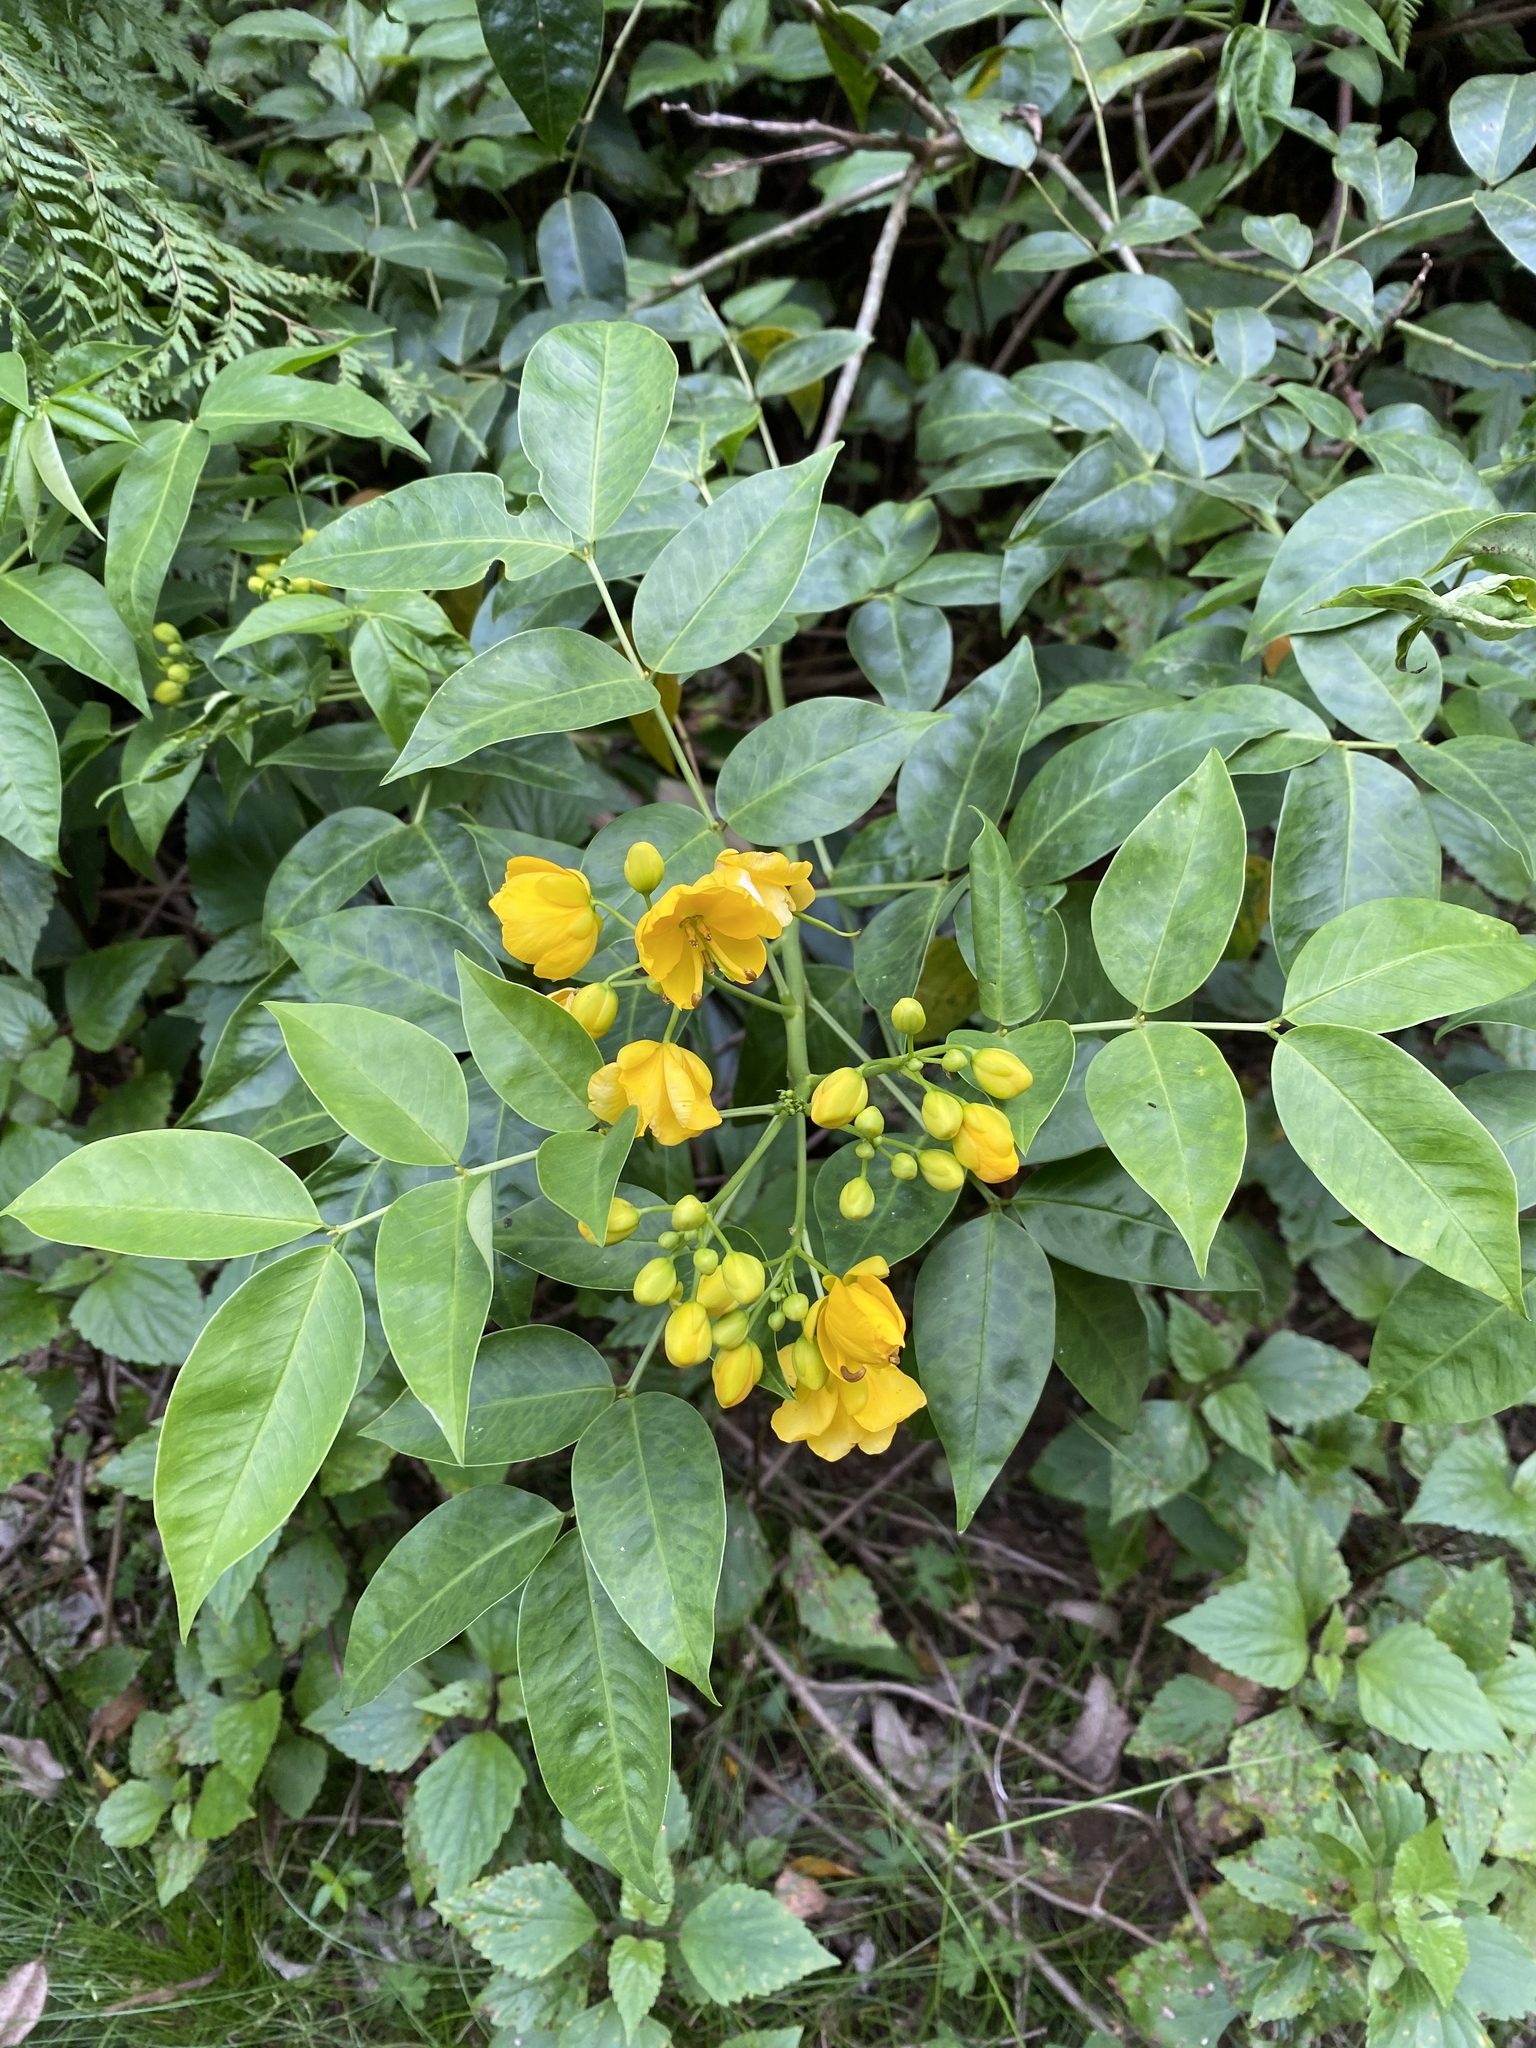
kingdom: Plantae
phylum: Tracheophyta
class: Magnoliopsida
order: Fabales
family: Fabaceae
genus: Senna
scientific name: Senna septemtrionalis
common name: Arsenic bush
